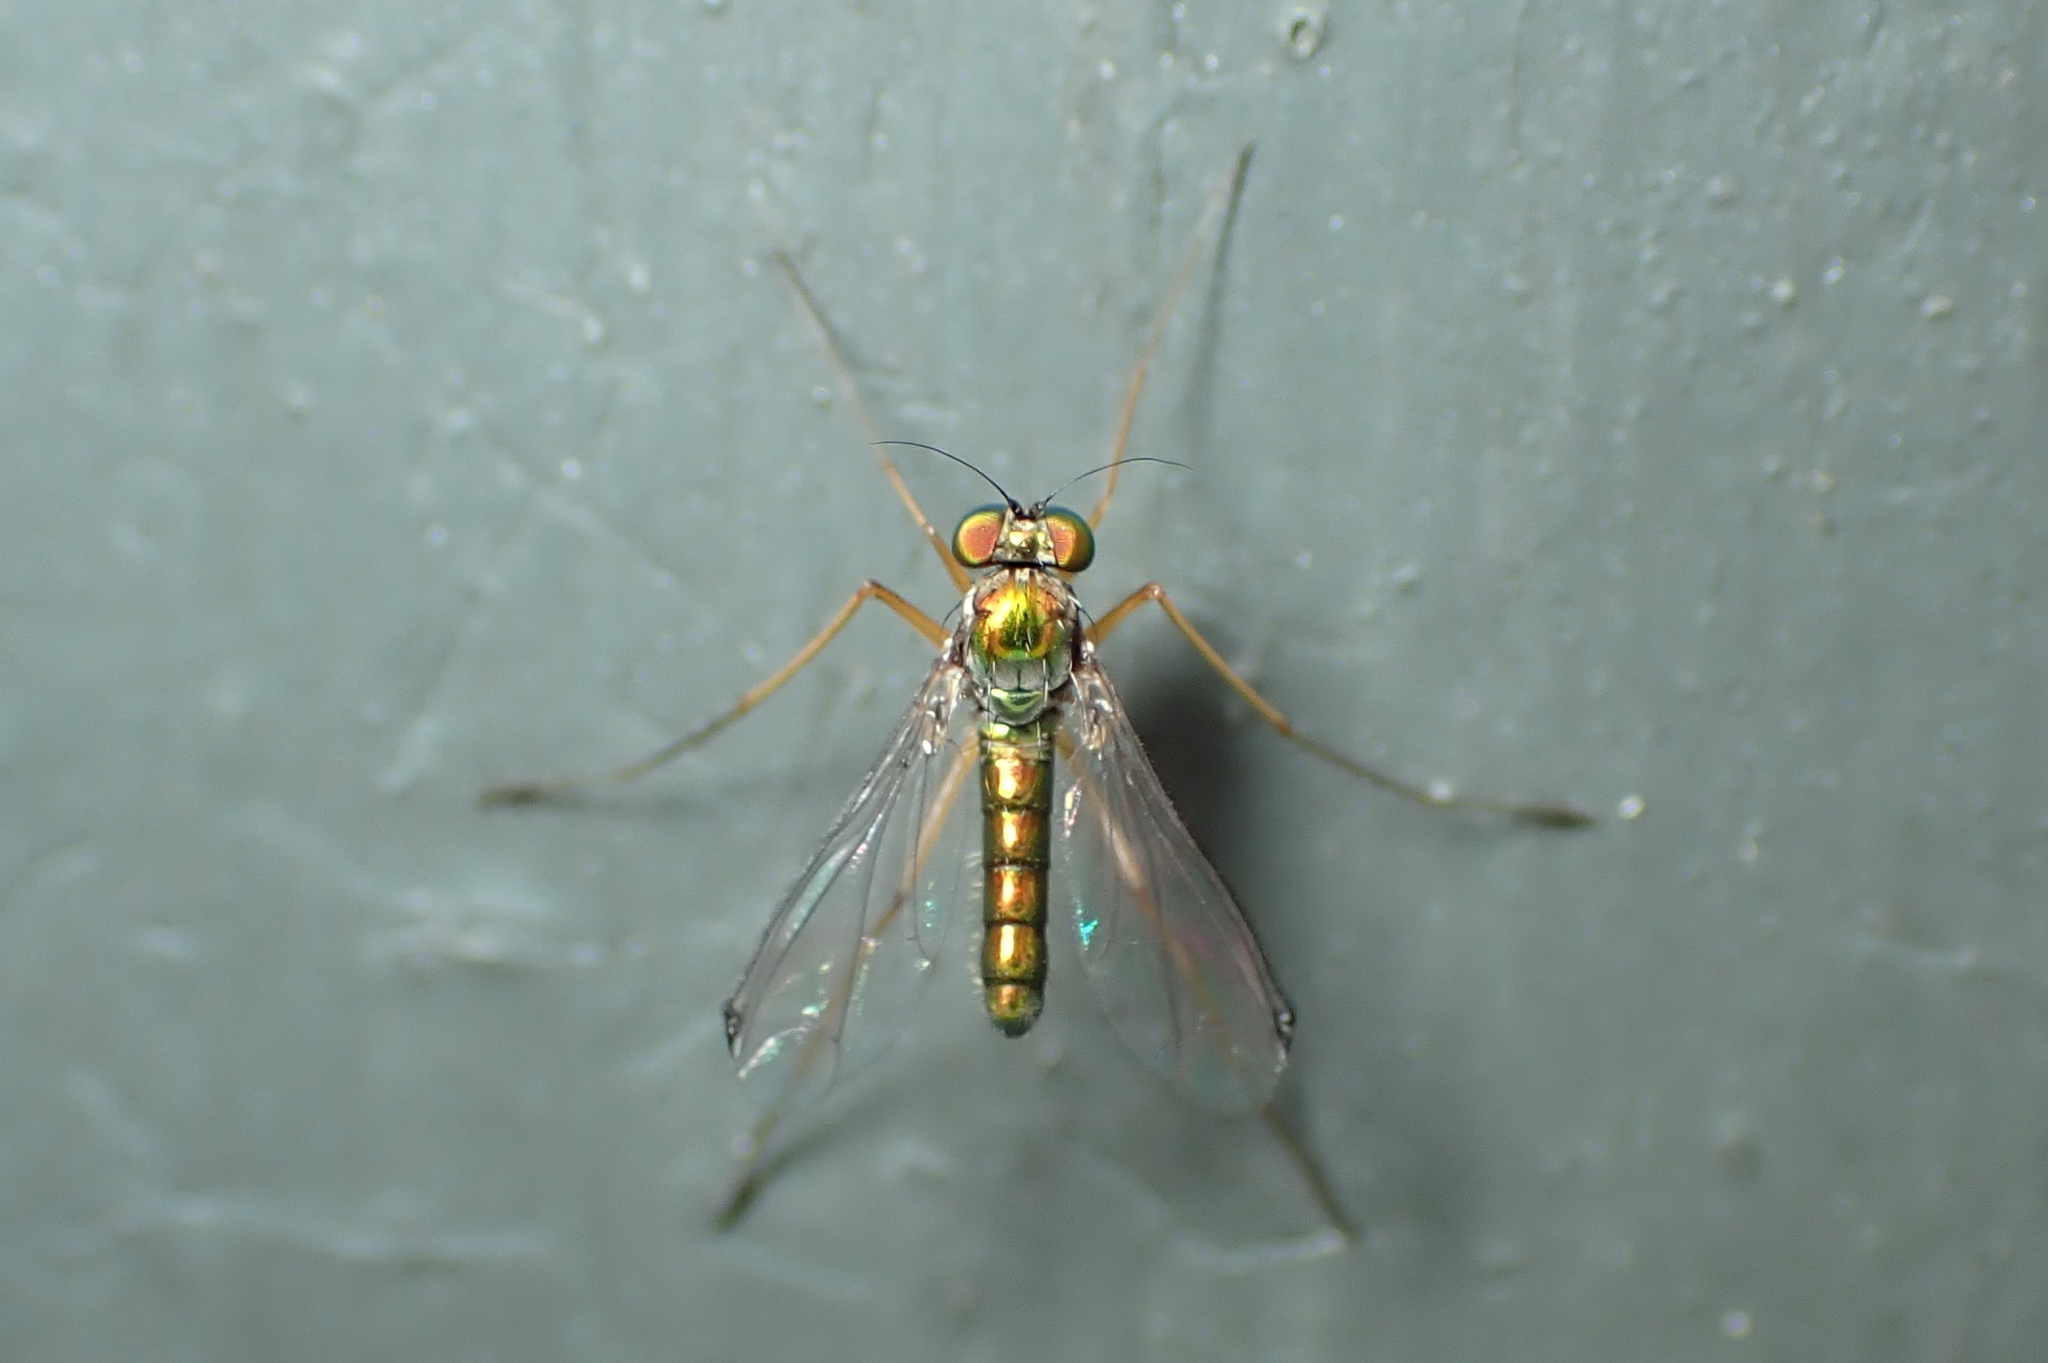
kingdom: Animalia
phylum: Arthropoda
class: Insecta
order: Diptera
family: Dolichopodidae
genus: Parentia
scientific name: Parentia anomalicosta
